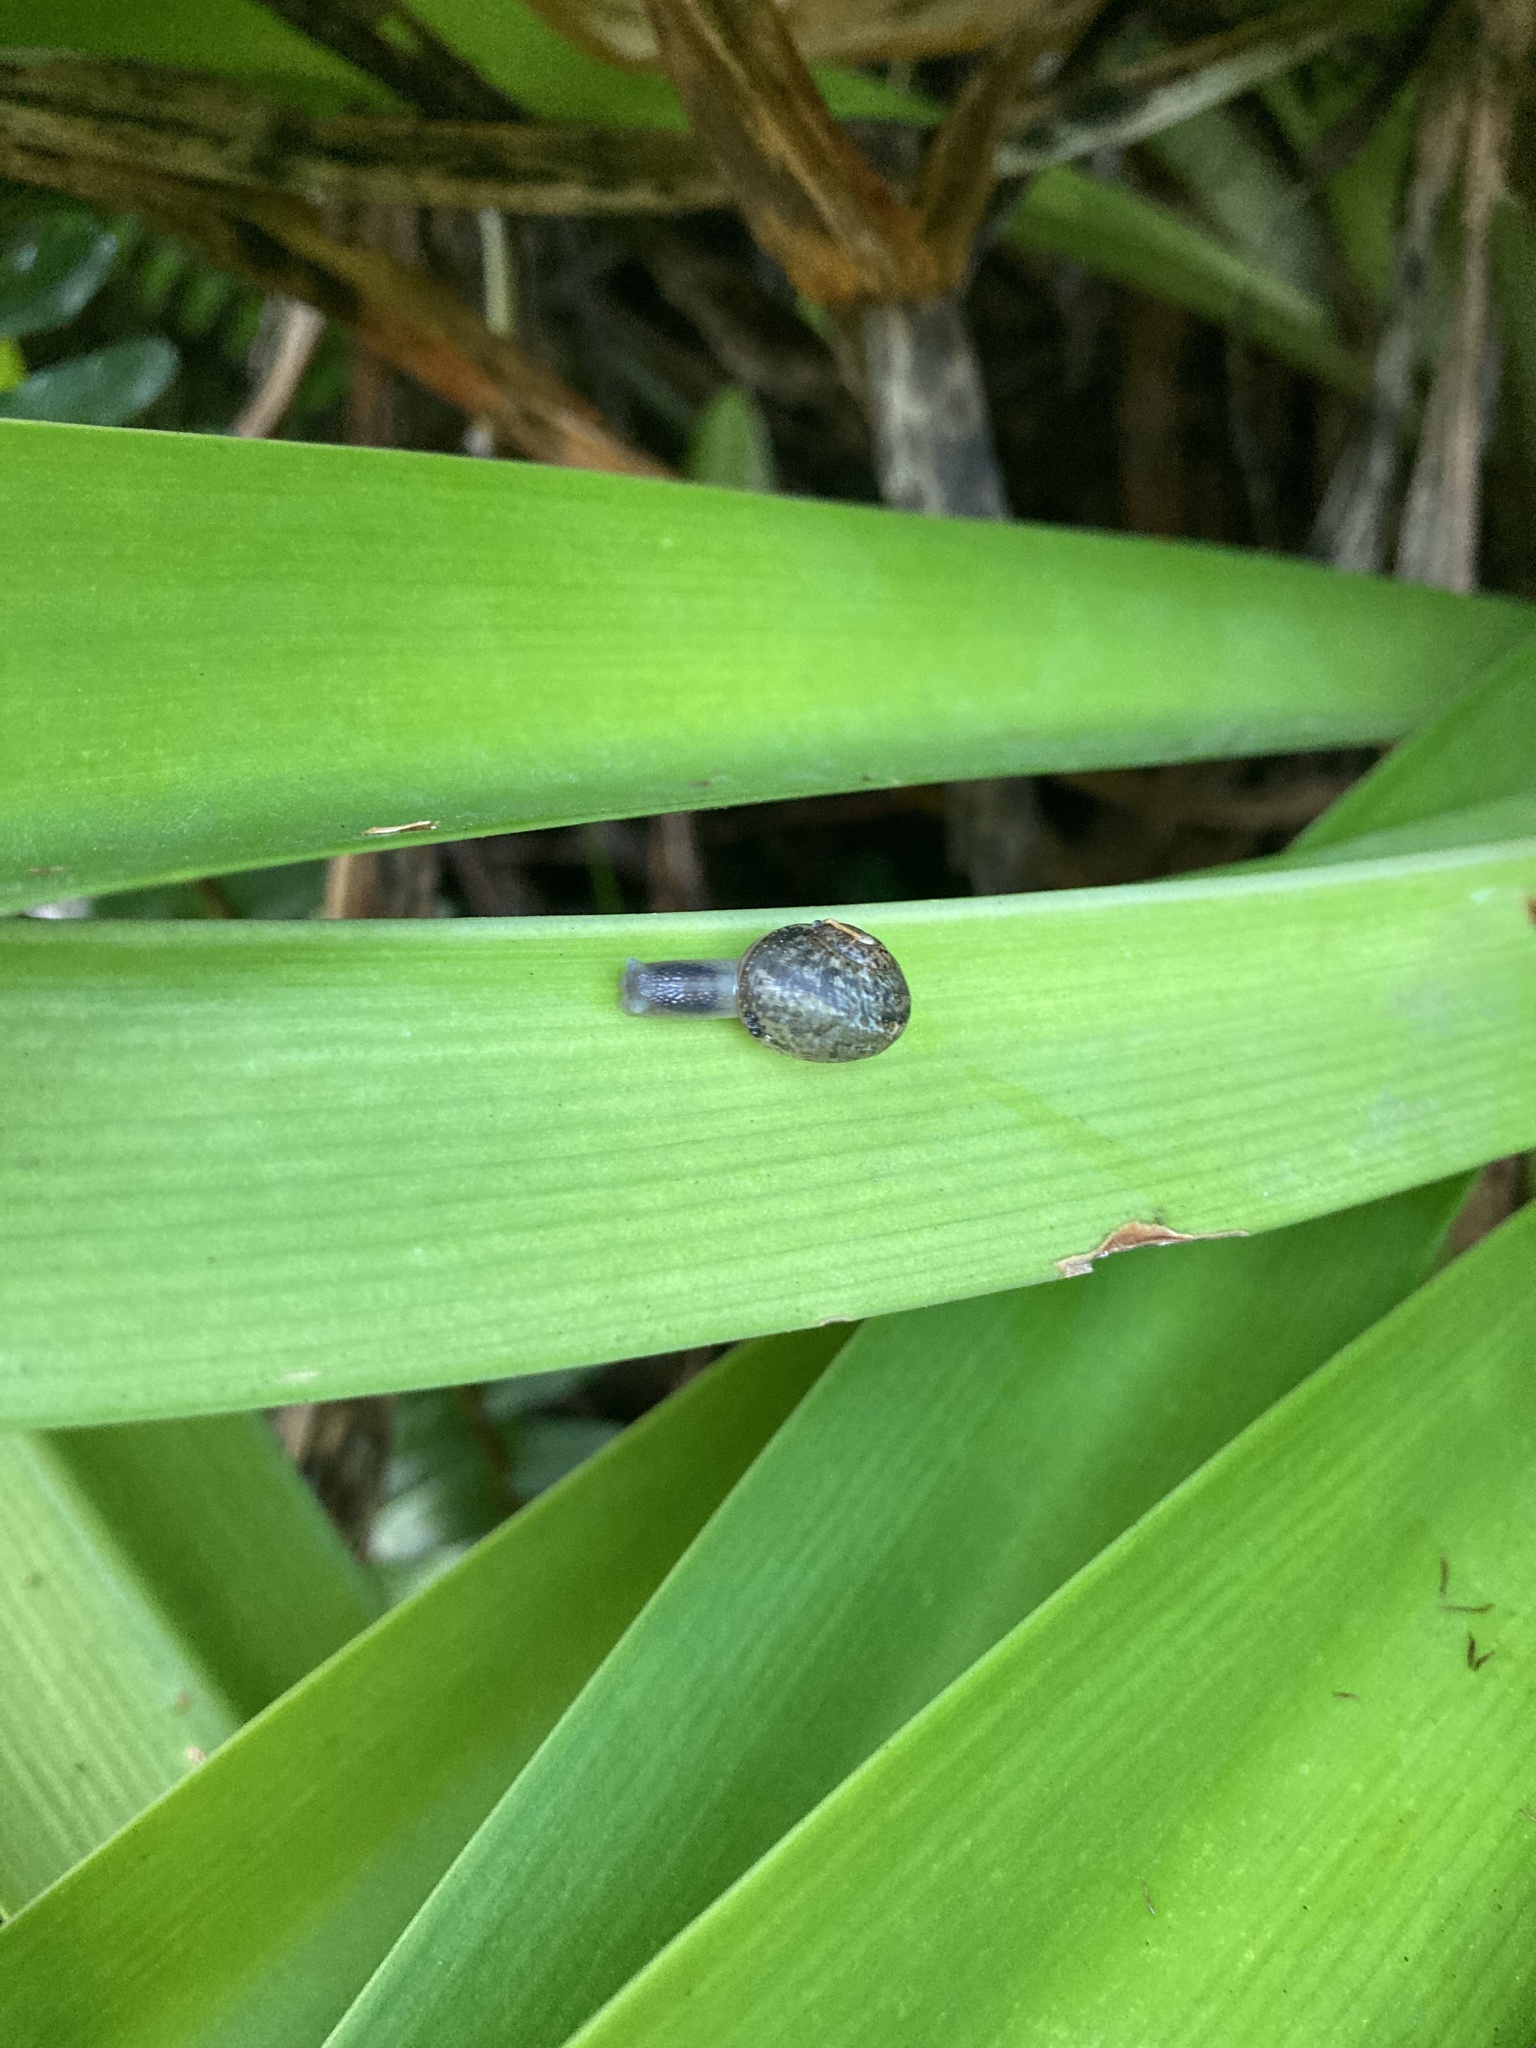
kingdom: Animalia
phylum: Mollusca
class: Gastropoda
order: Stylommatophora
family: Helicidae
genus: Cornu
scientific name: Cornu aspersum
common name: Brown garden snail
